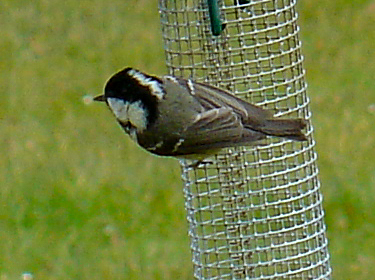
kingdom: Animalia
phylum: Chordata
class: Aves
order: Passeriformes
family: Paridae
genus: Periparus
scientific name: Periparus ater
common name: Coal tit
